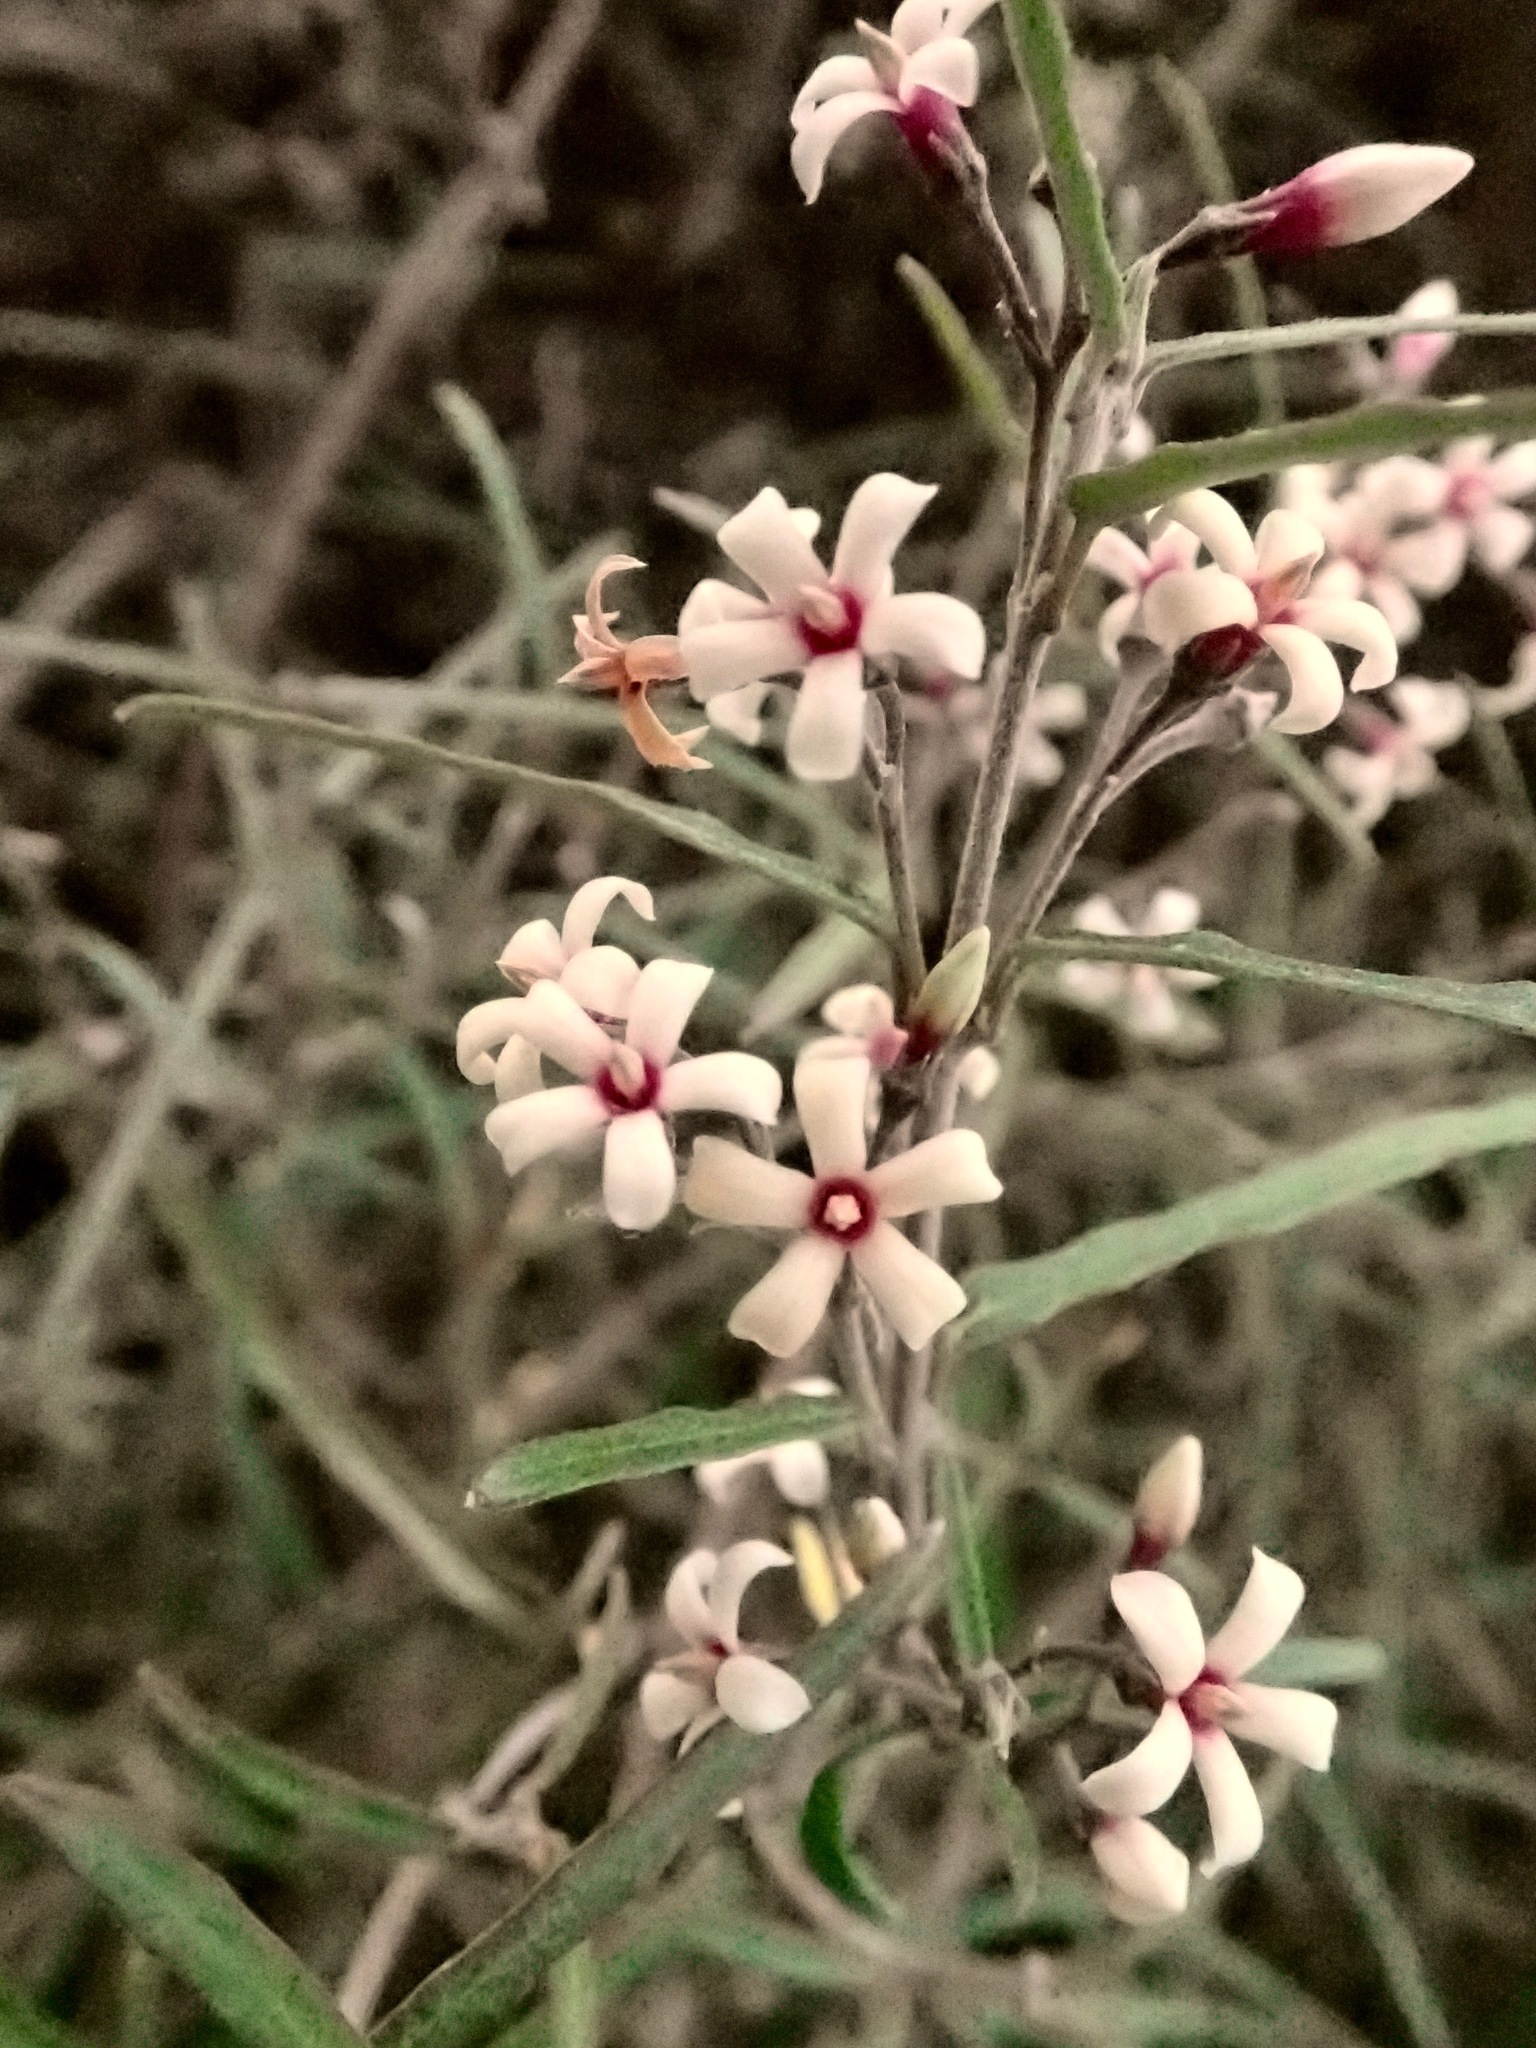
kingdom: Plantae
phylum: Tracheophyta
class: Magnoliopsida
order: Gentianales
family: Apocynaceae
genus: Parsonsia
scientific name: Parsonsia capsularis
